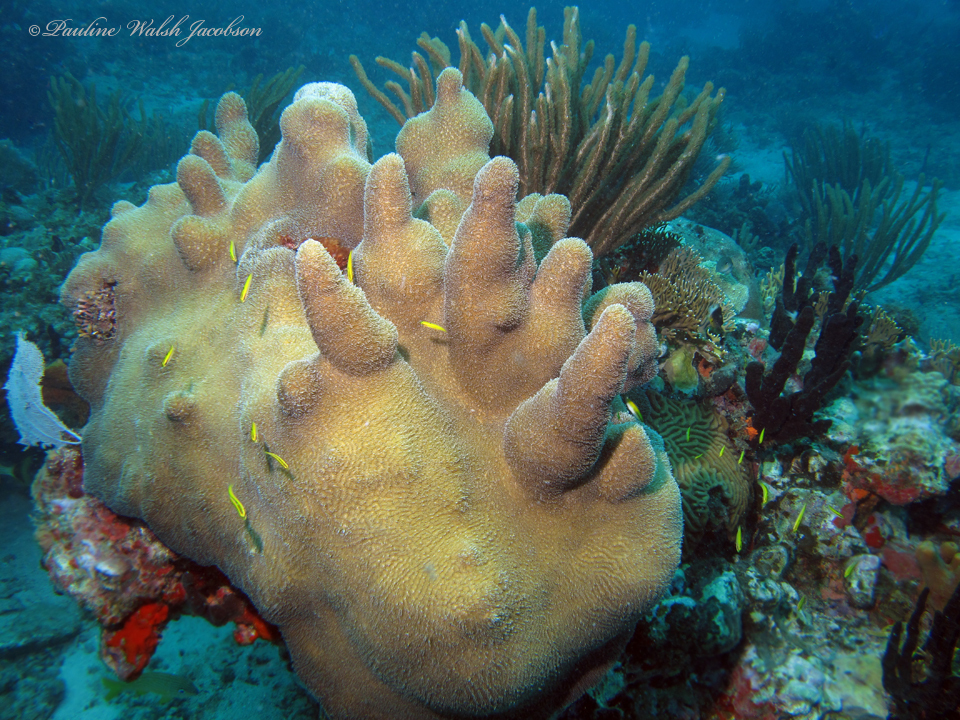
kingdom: Animalia
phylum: Cnidaria
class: Anthozoa
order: Scleractinia
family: Meandrinidae
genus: Dendrogyra
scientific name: Dendrogyra cylindrus
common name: Pillar coral
